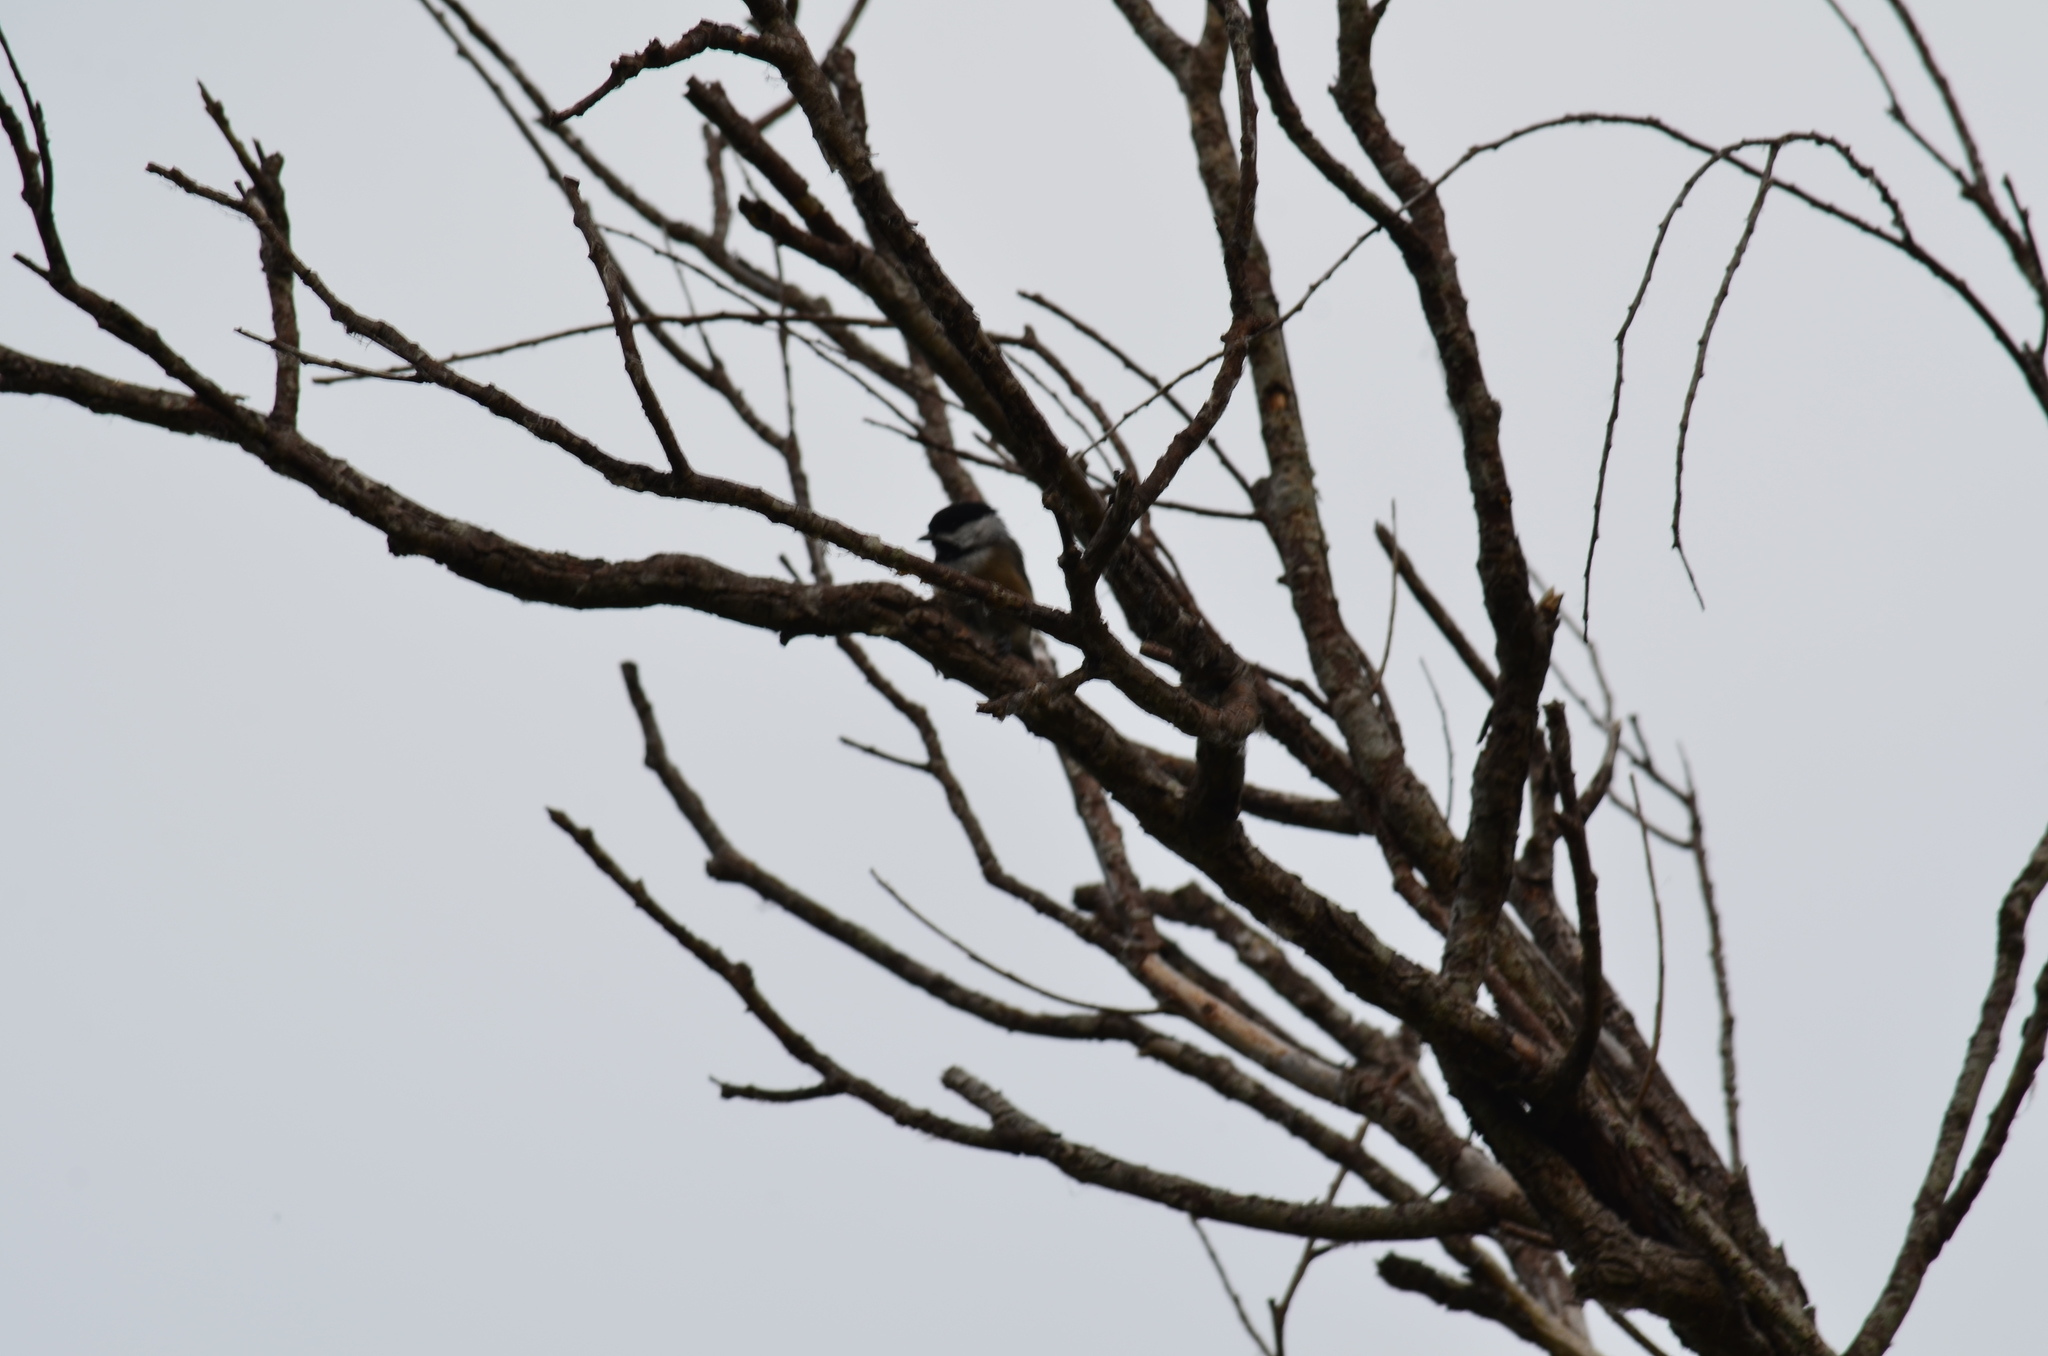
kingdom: Animalia
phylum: Chordata
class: Aves
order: Passeriformes
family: Paridae
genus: Poecile
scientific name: Poecile atricapillus
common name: Black-capped chickadee
